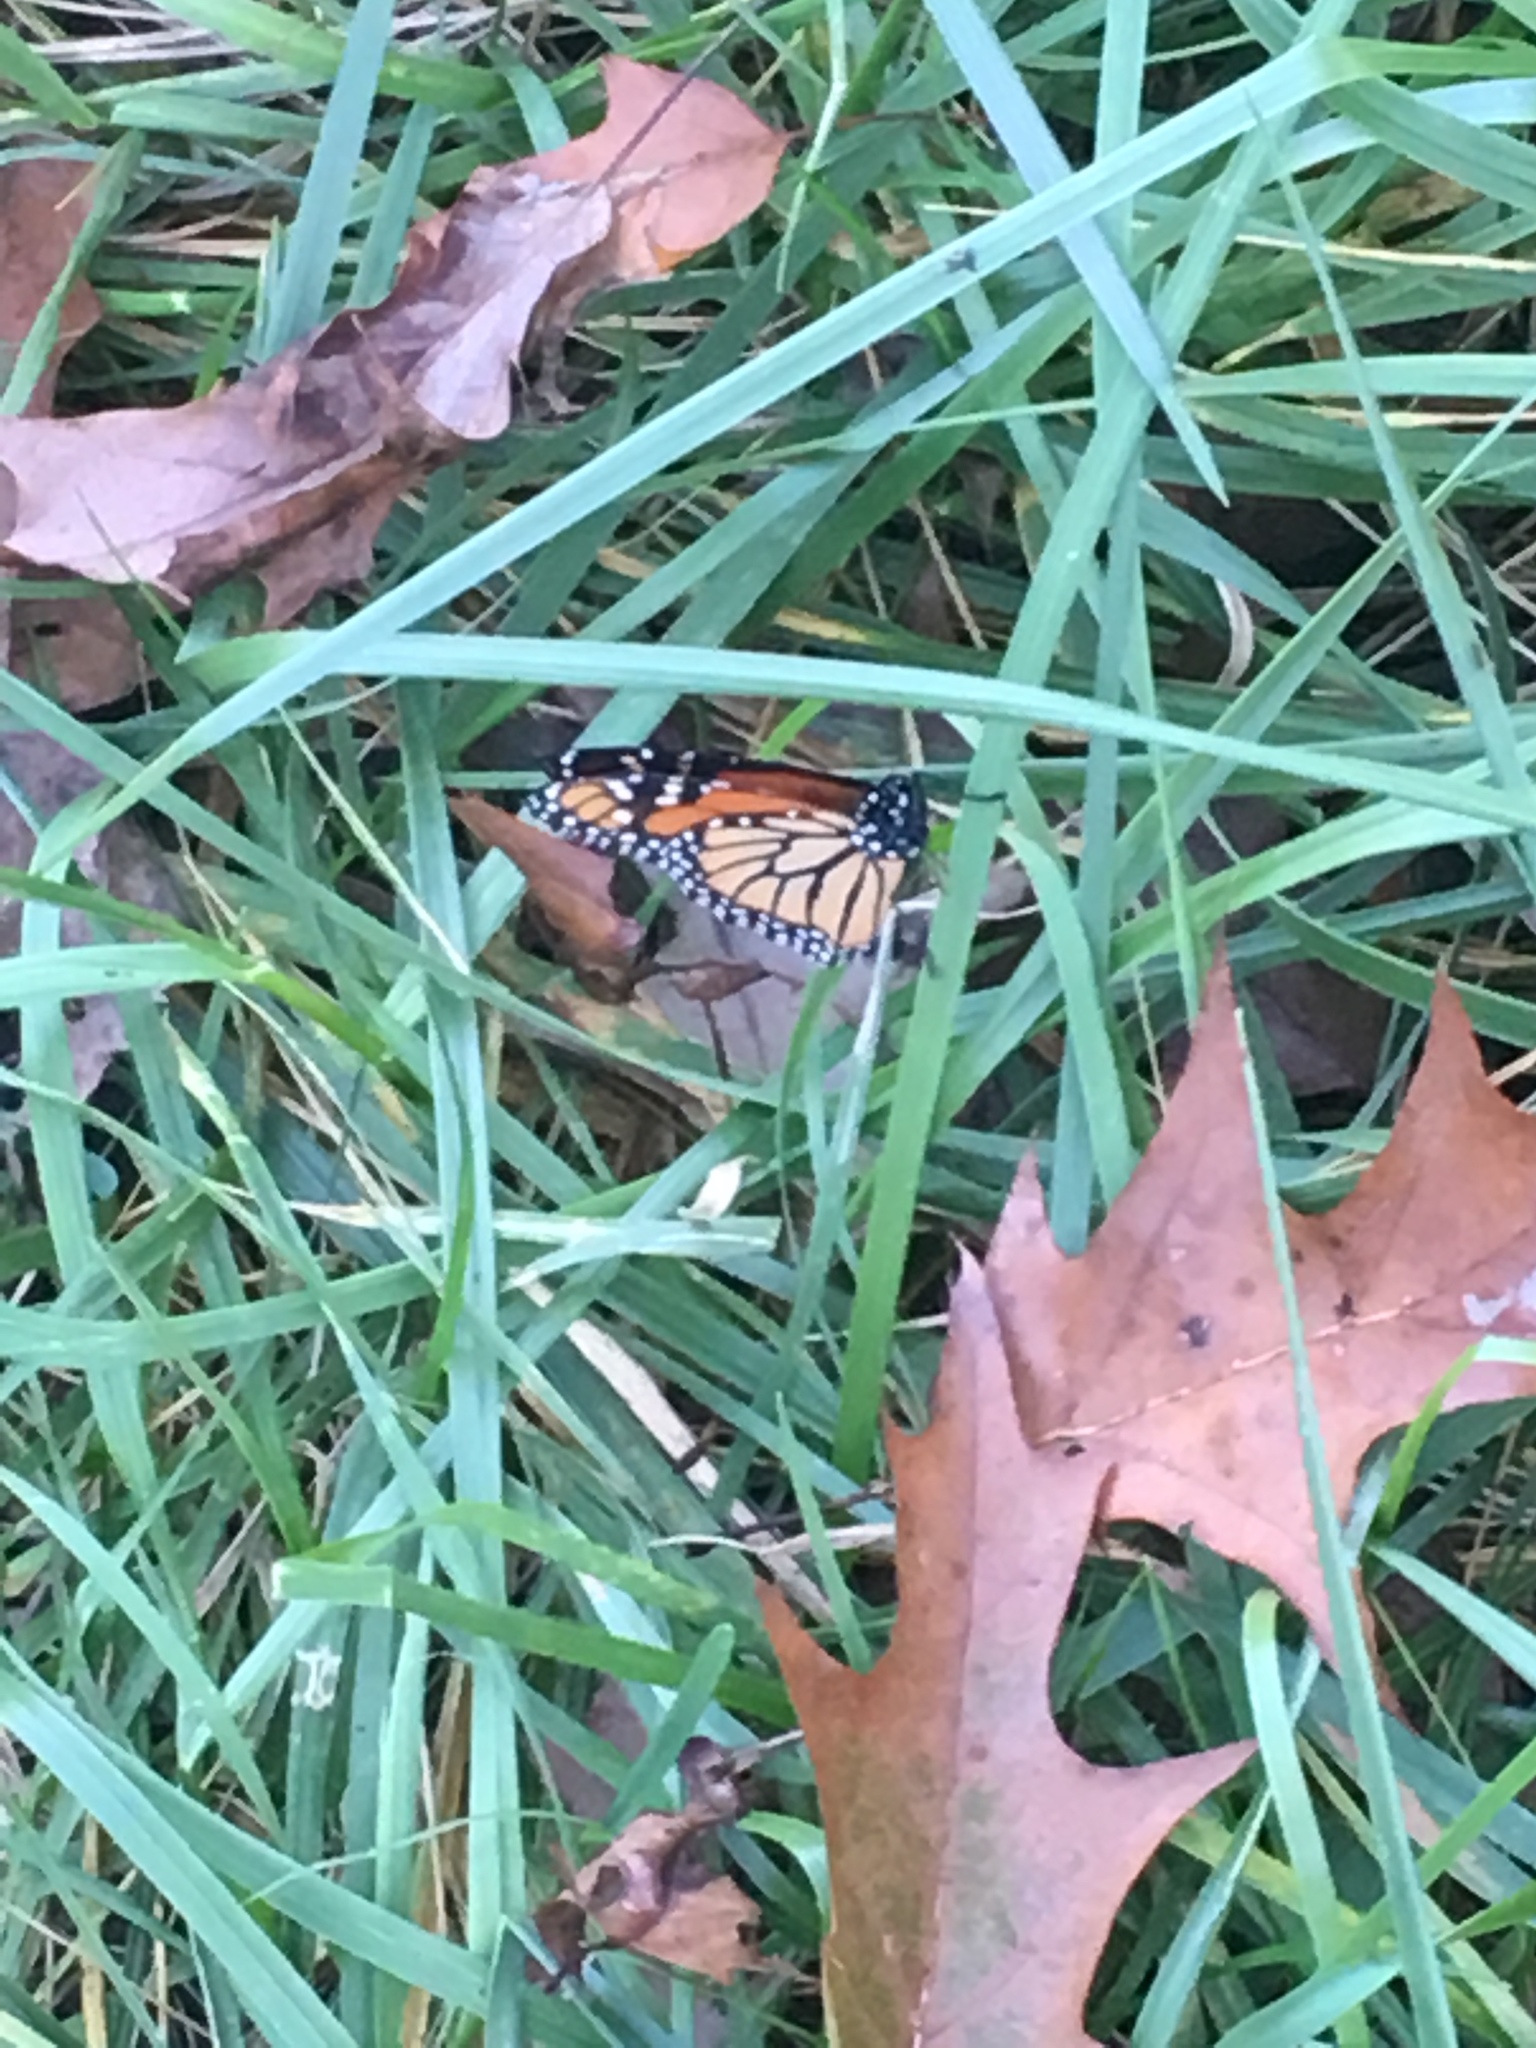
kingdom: Animalia
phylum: Arthropoda
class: Insecta
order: Lepidoptera
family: Nymphalidae
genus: Danaus
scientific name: Danaus plexippus
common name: Monarch
